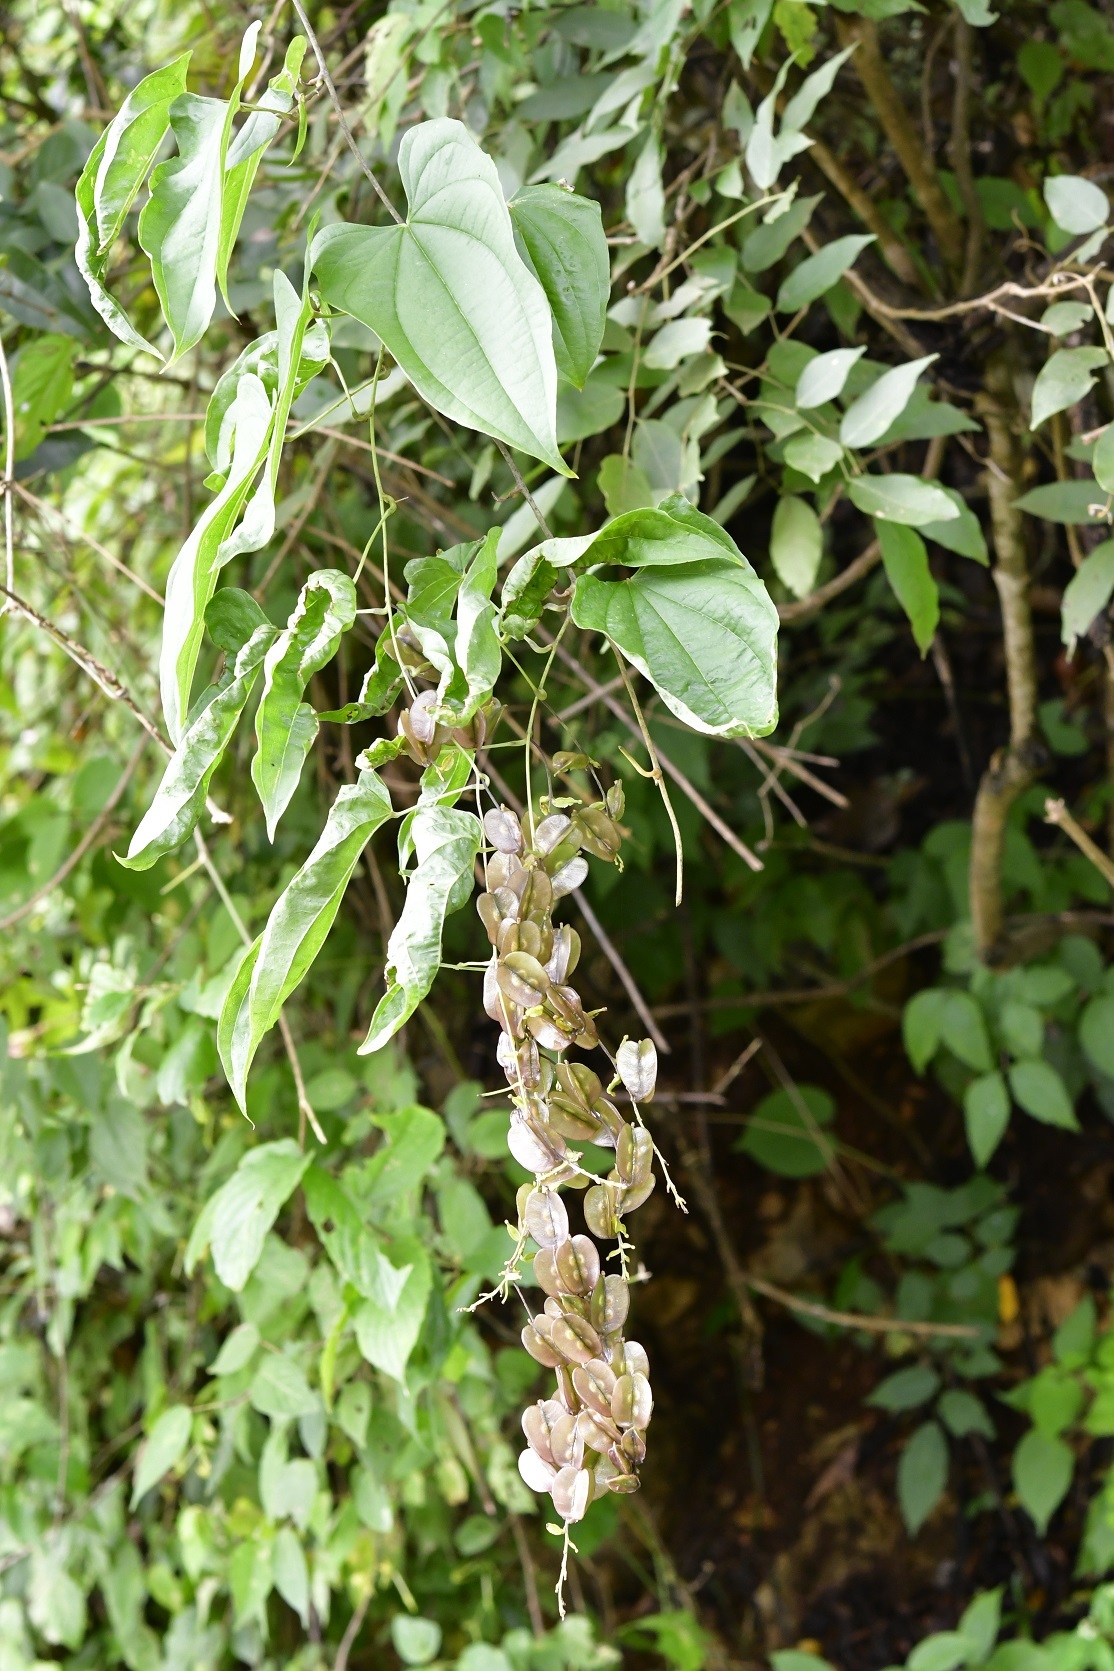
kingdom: Plantae
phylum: Tracheophyta
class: Liliopsida
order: Dioscoreales
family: Dioscoreaceae
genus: Dioscorea
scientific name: Dioscorea spiculiflora
